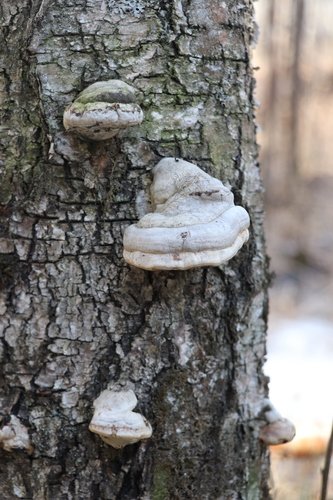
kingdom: Fungi
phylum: Basidiomycota
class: Agaricomycetes
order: Polyporales
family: Polyporaceae
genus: Fomes
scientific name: Fomes fomentarius
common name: Hoof fungus
